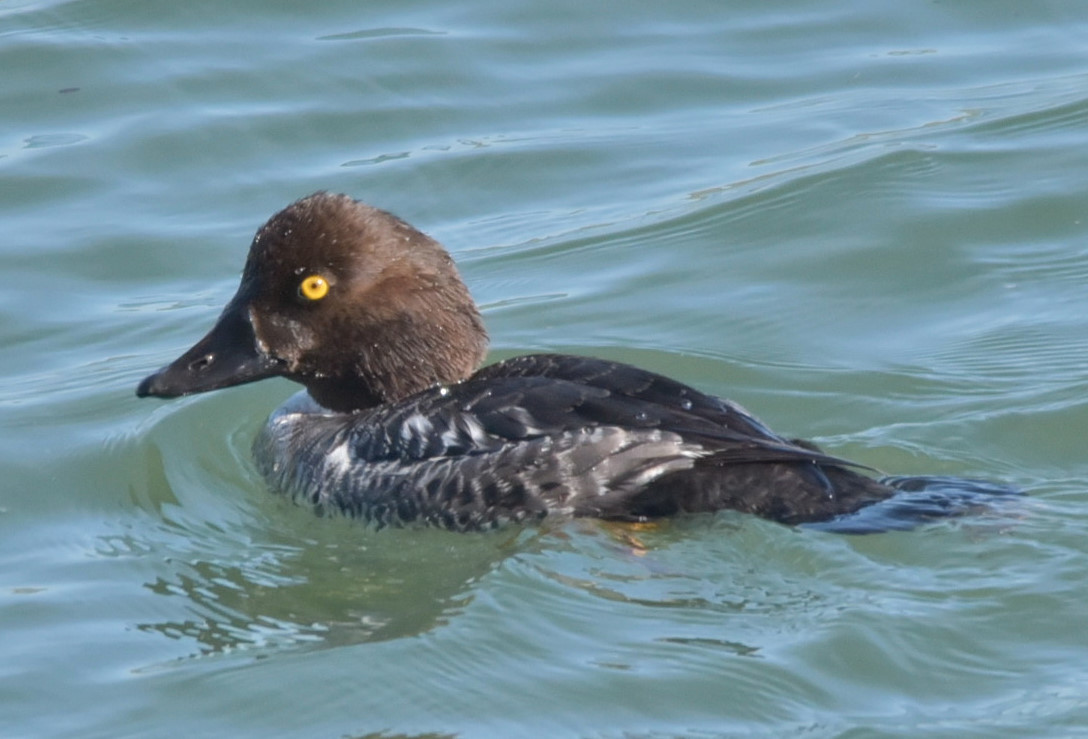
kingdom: Animalia
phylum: Chordata
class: Aves
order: Anseriformes
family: Anatidae
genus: Bucephala
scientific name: Bucephala clangula
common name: Common goldeneye
